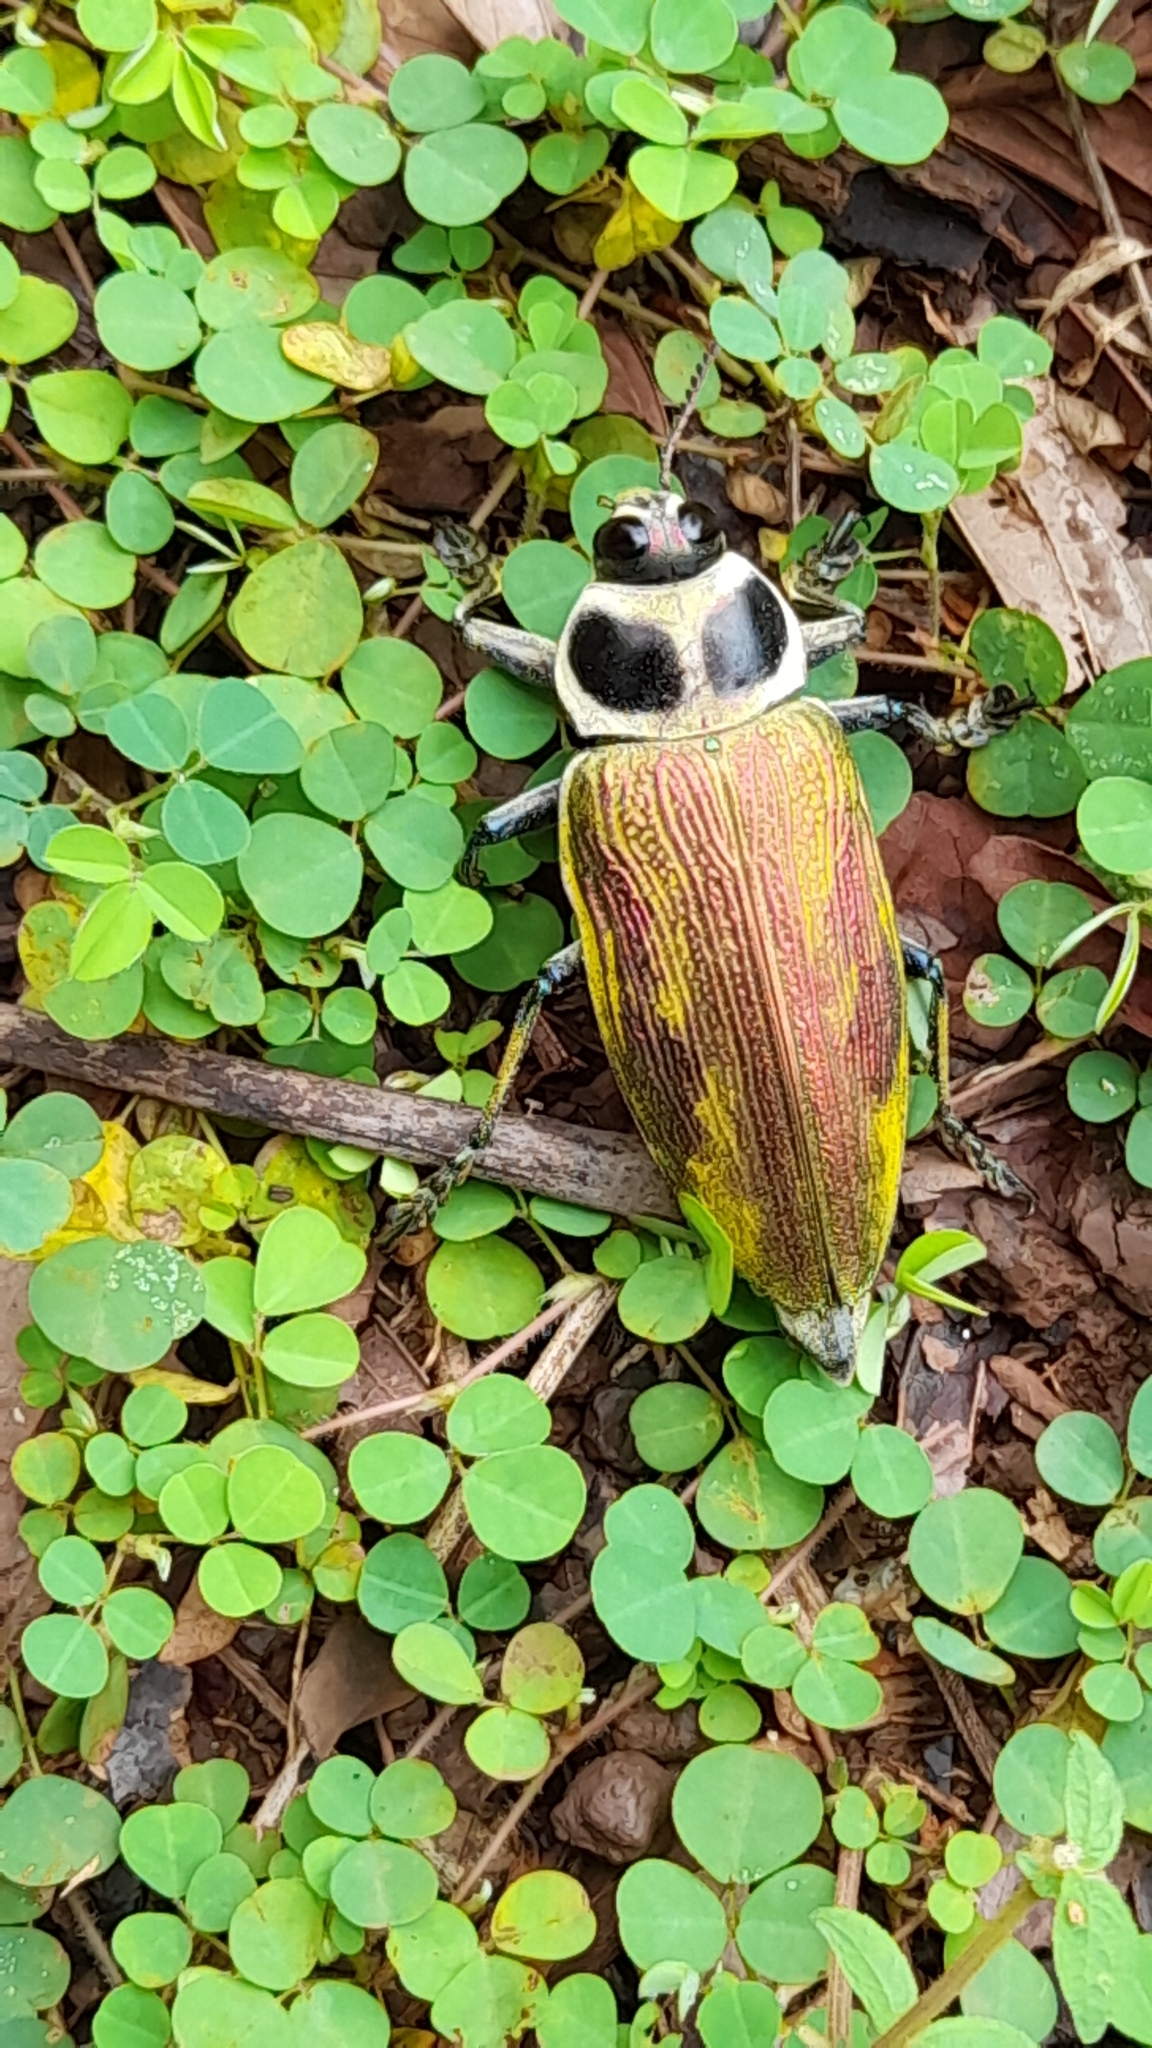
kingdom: Animalia
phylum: Arthropoda
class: Insecta
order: Coleoptera
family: Buprestidae
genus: Euchroma
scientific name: Euchroma giganteum
